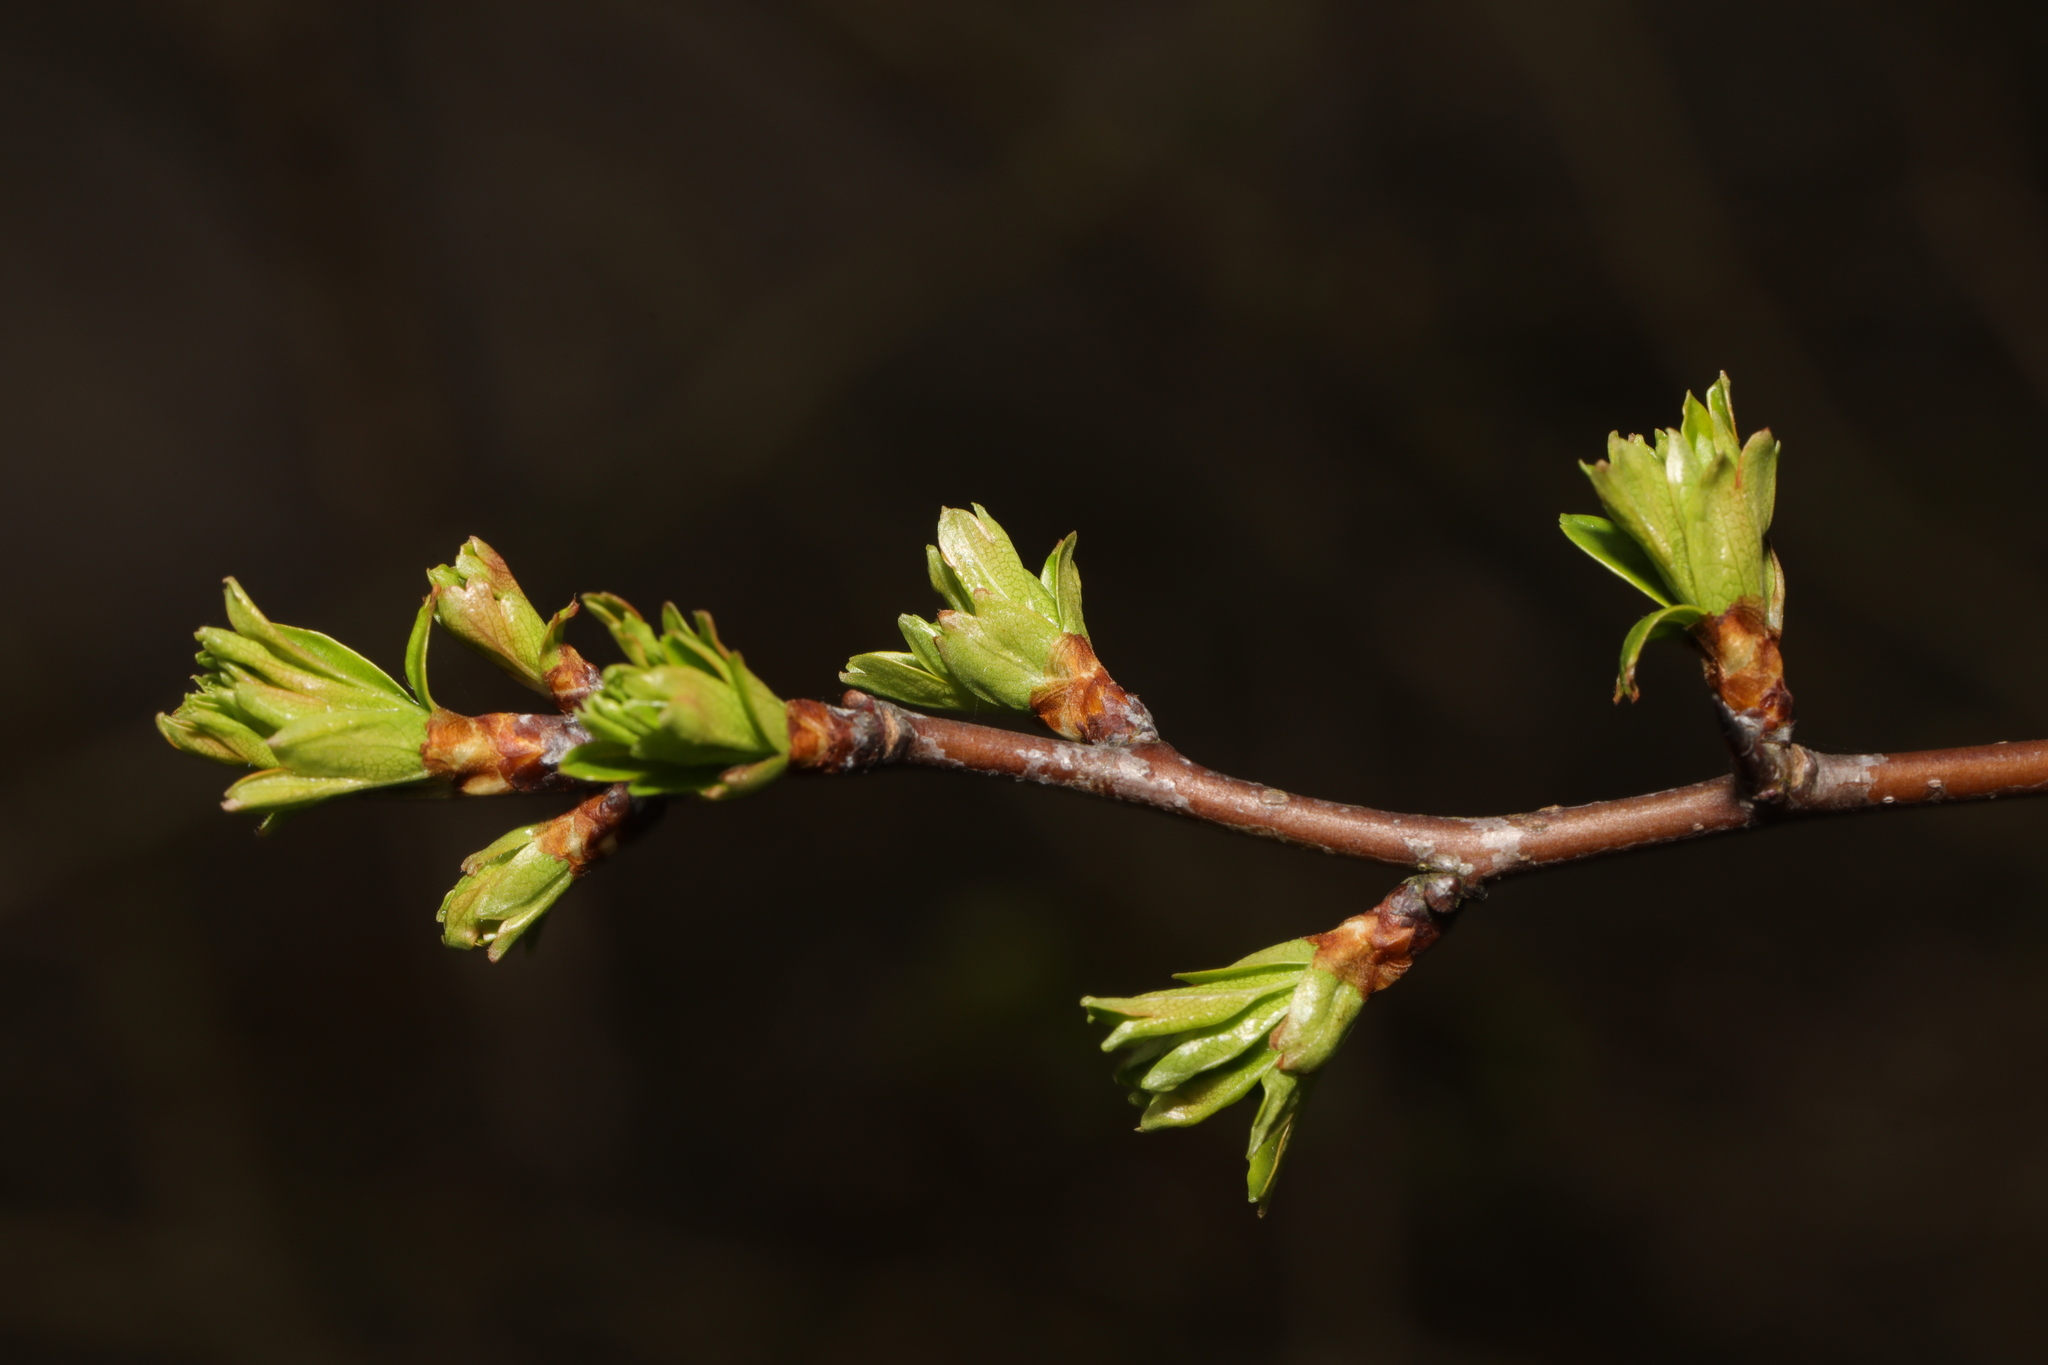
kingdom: Plantae
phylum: Tracheophyta
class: Magnoliopsida
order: Rosales
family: Rosaceae
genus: Crataegus
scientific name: Crataegus monogyna
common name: Hawthorn
